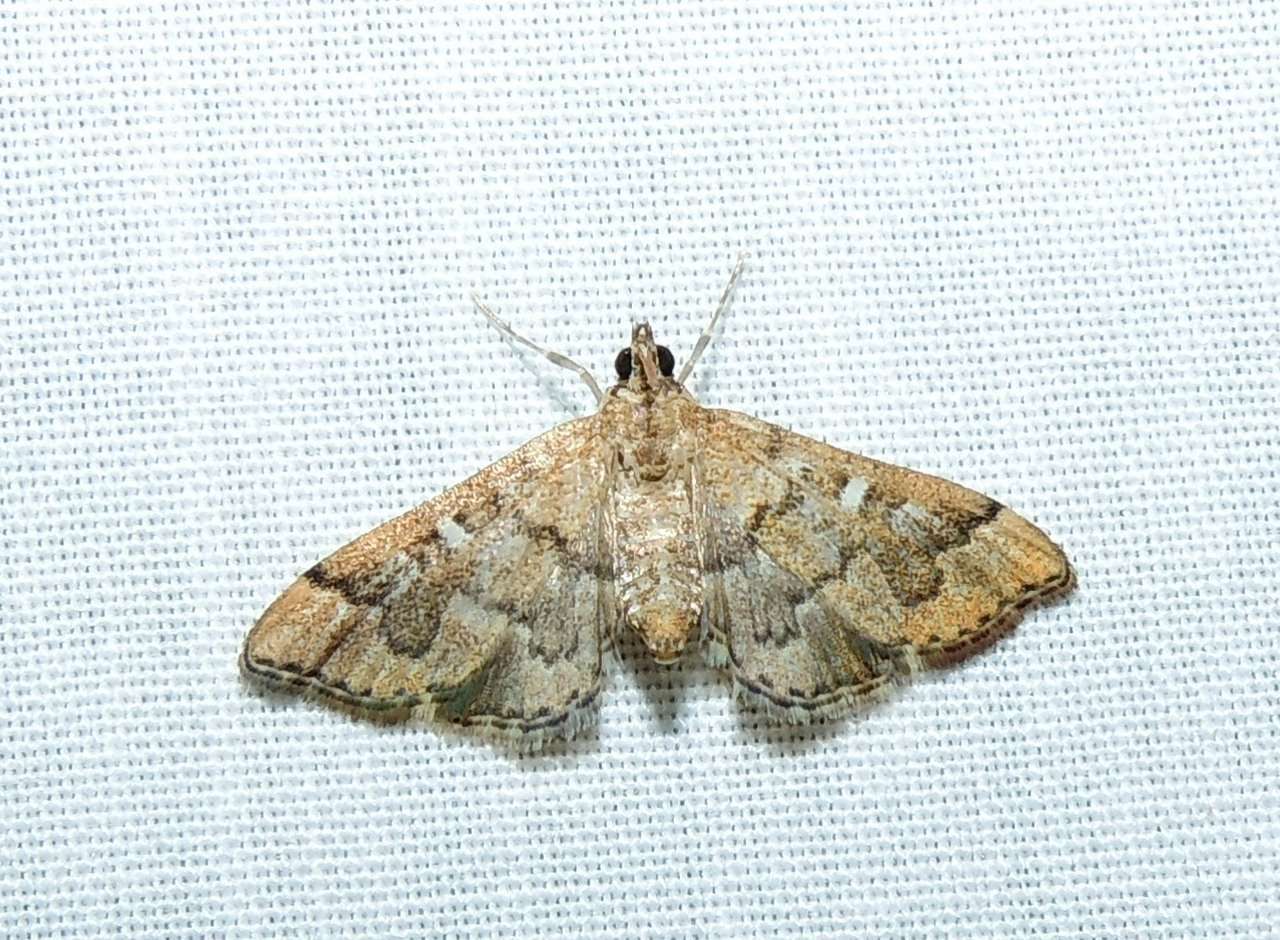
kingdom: Animalia
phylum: Arthropoda
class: Insecta
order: Lepidoptera
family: Crambidae
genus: Nacoleia
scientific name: Nacoleia rhoeoalis
